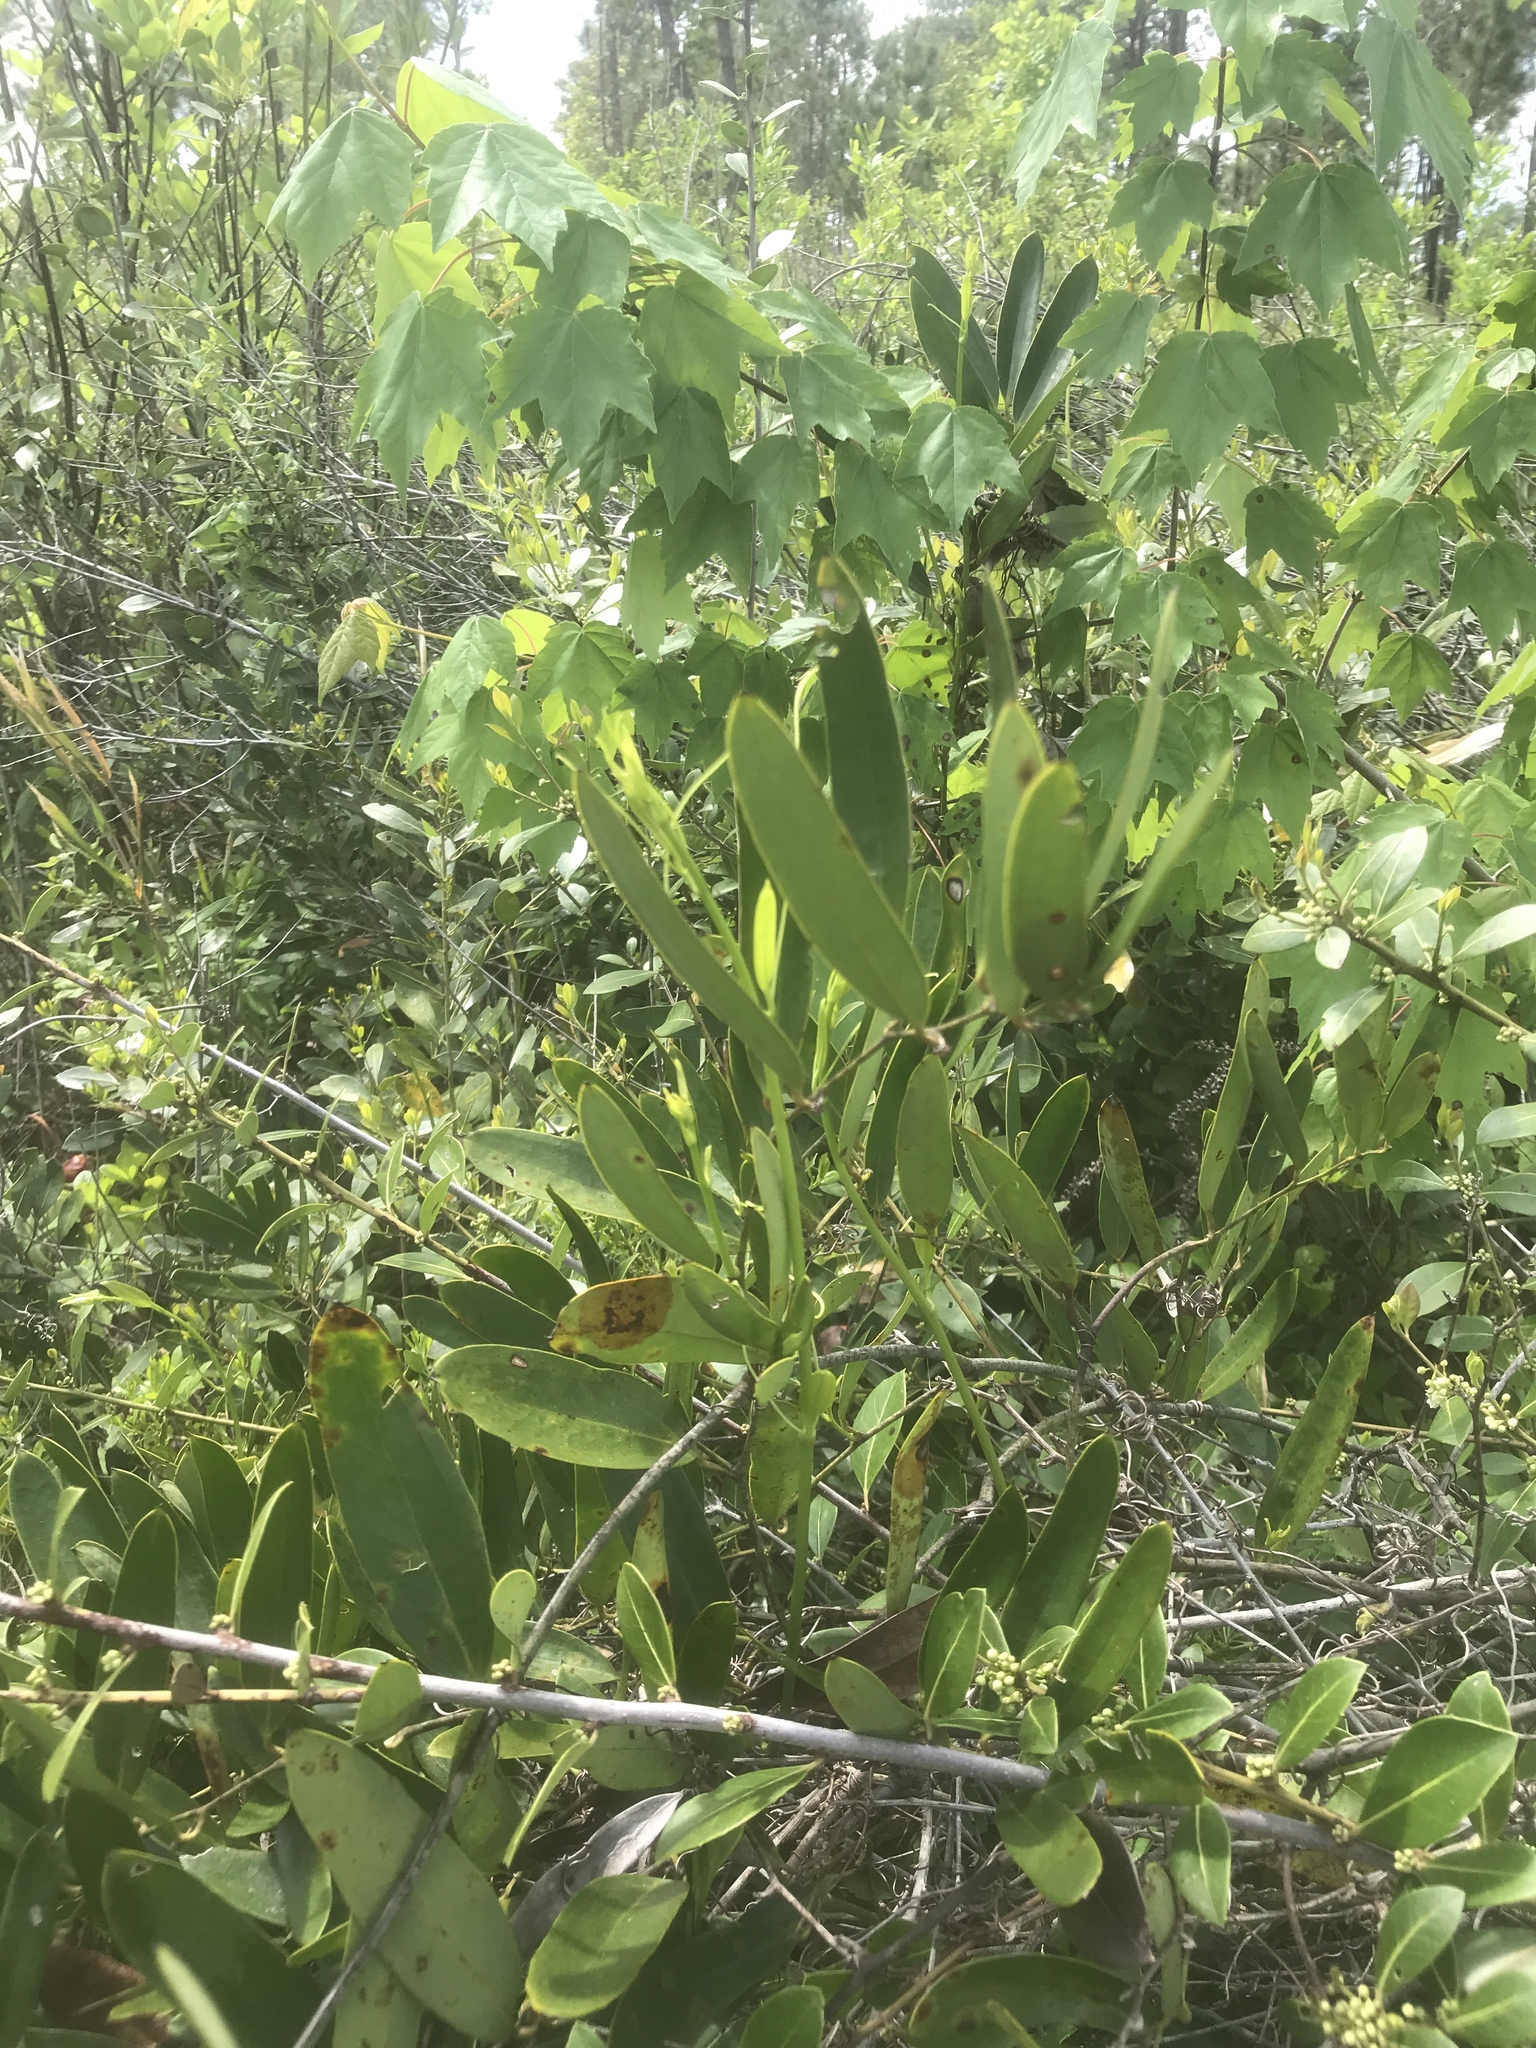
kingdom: Plantae
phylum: Tracheophyta
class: Liliopsida
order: Liliales
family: Smilacaceae
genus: Smilax
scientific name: Smilax laurifolia
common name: Bamboovine
